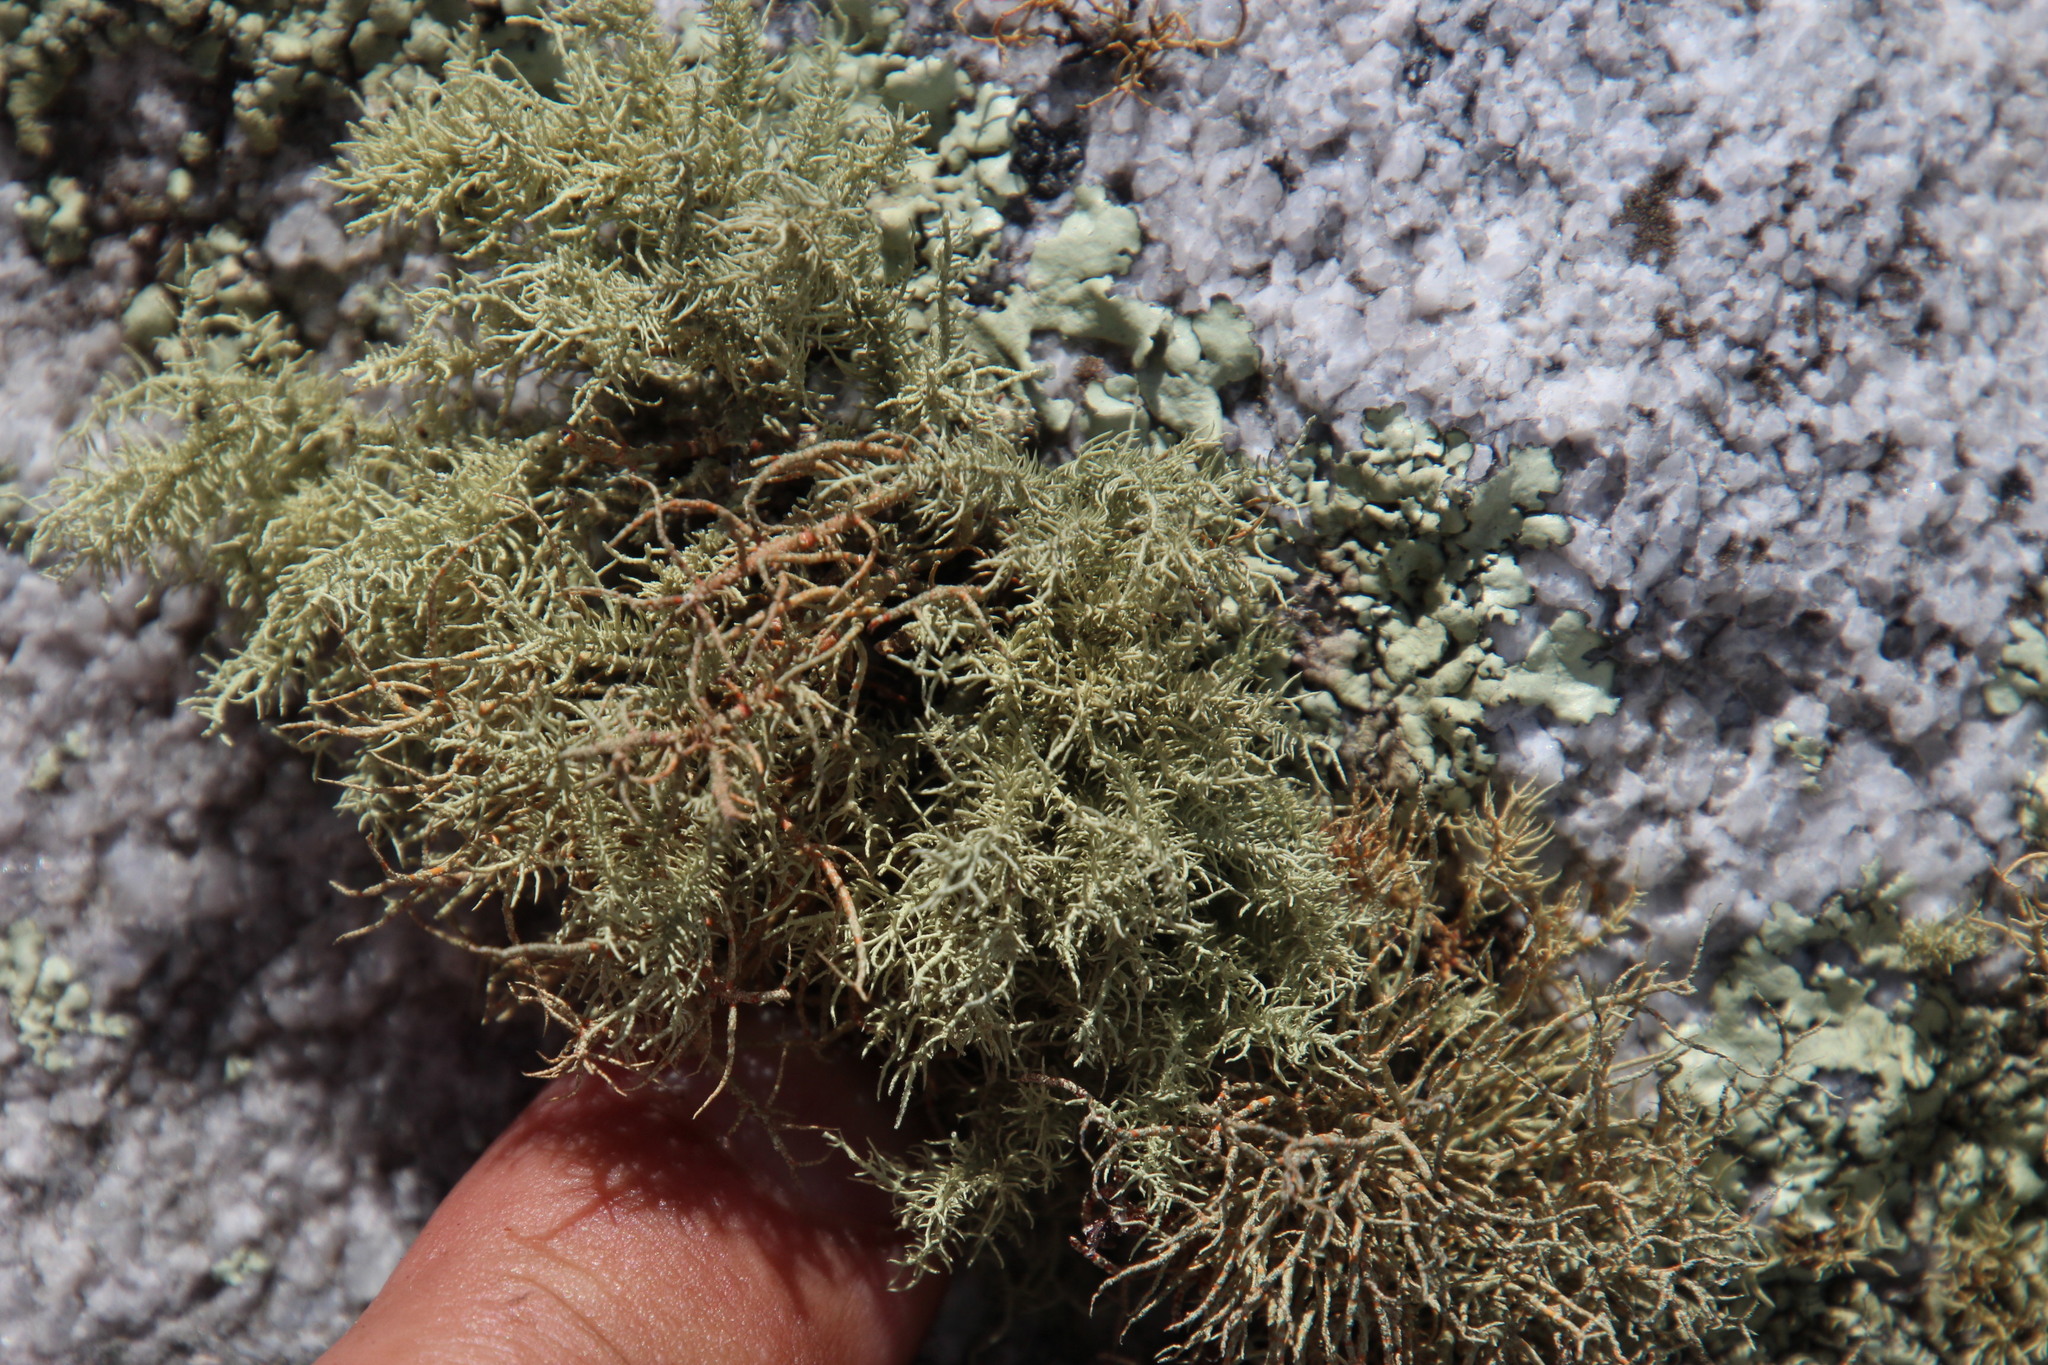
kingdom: Fungi
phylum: Ascomycota
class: Lecanoromycetes
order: Lecanorales
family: Parmeliaceae
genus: Usnea
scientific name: Usnea maculata
